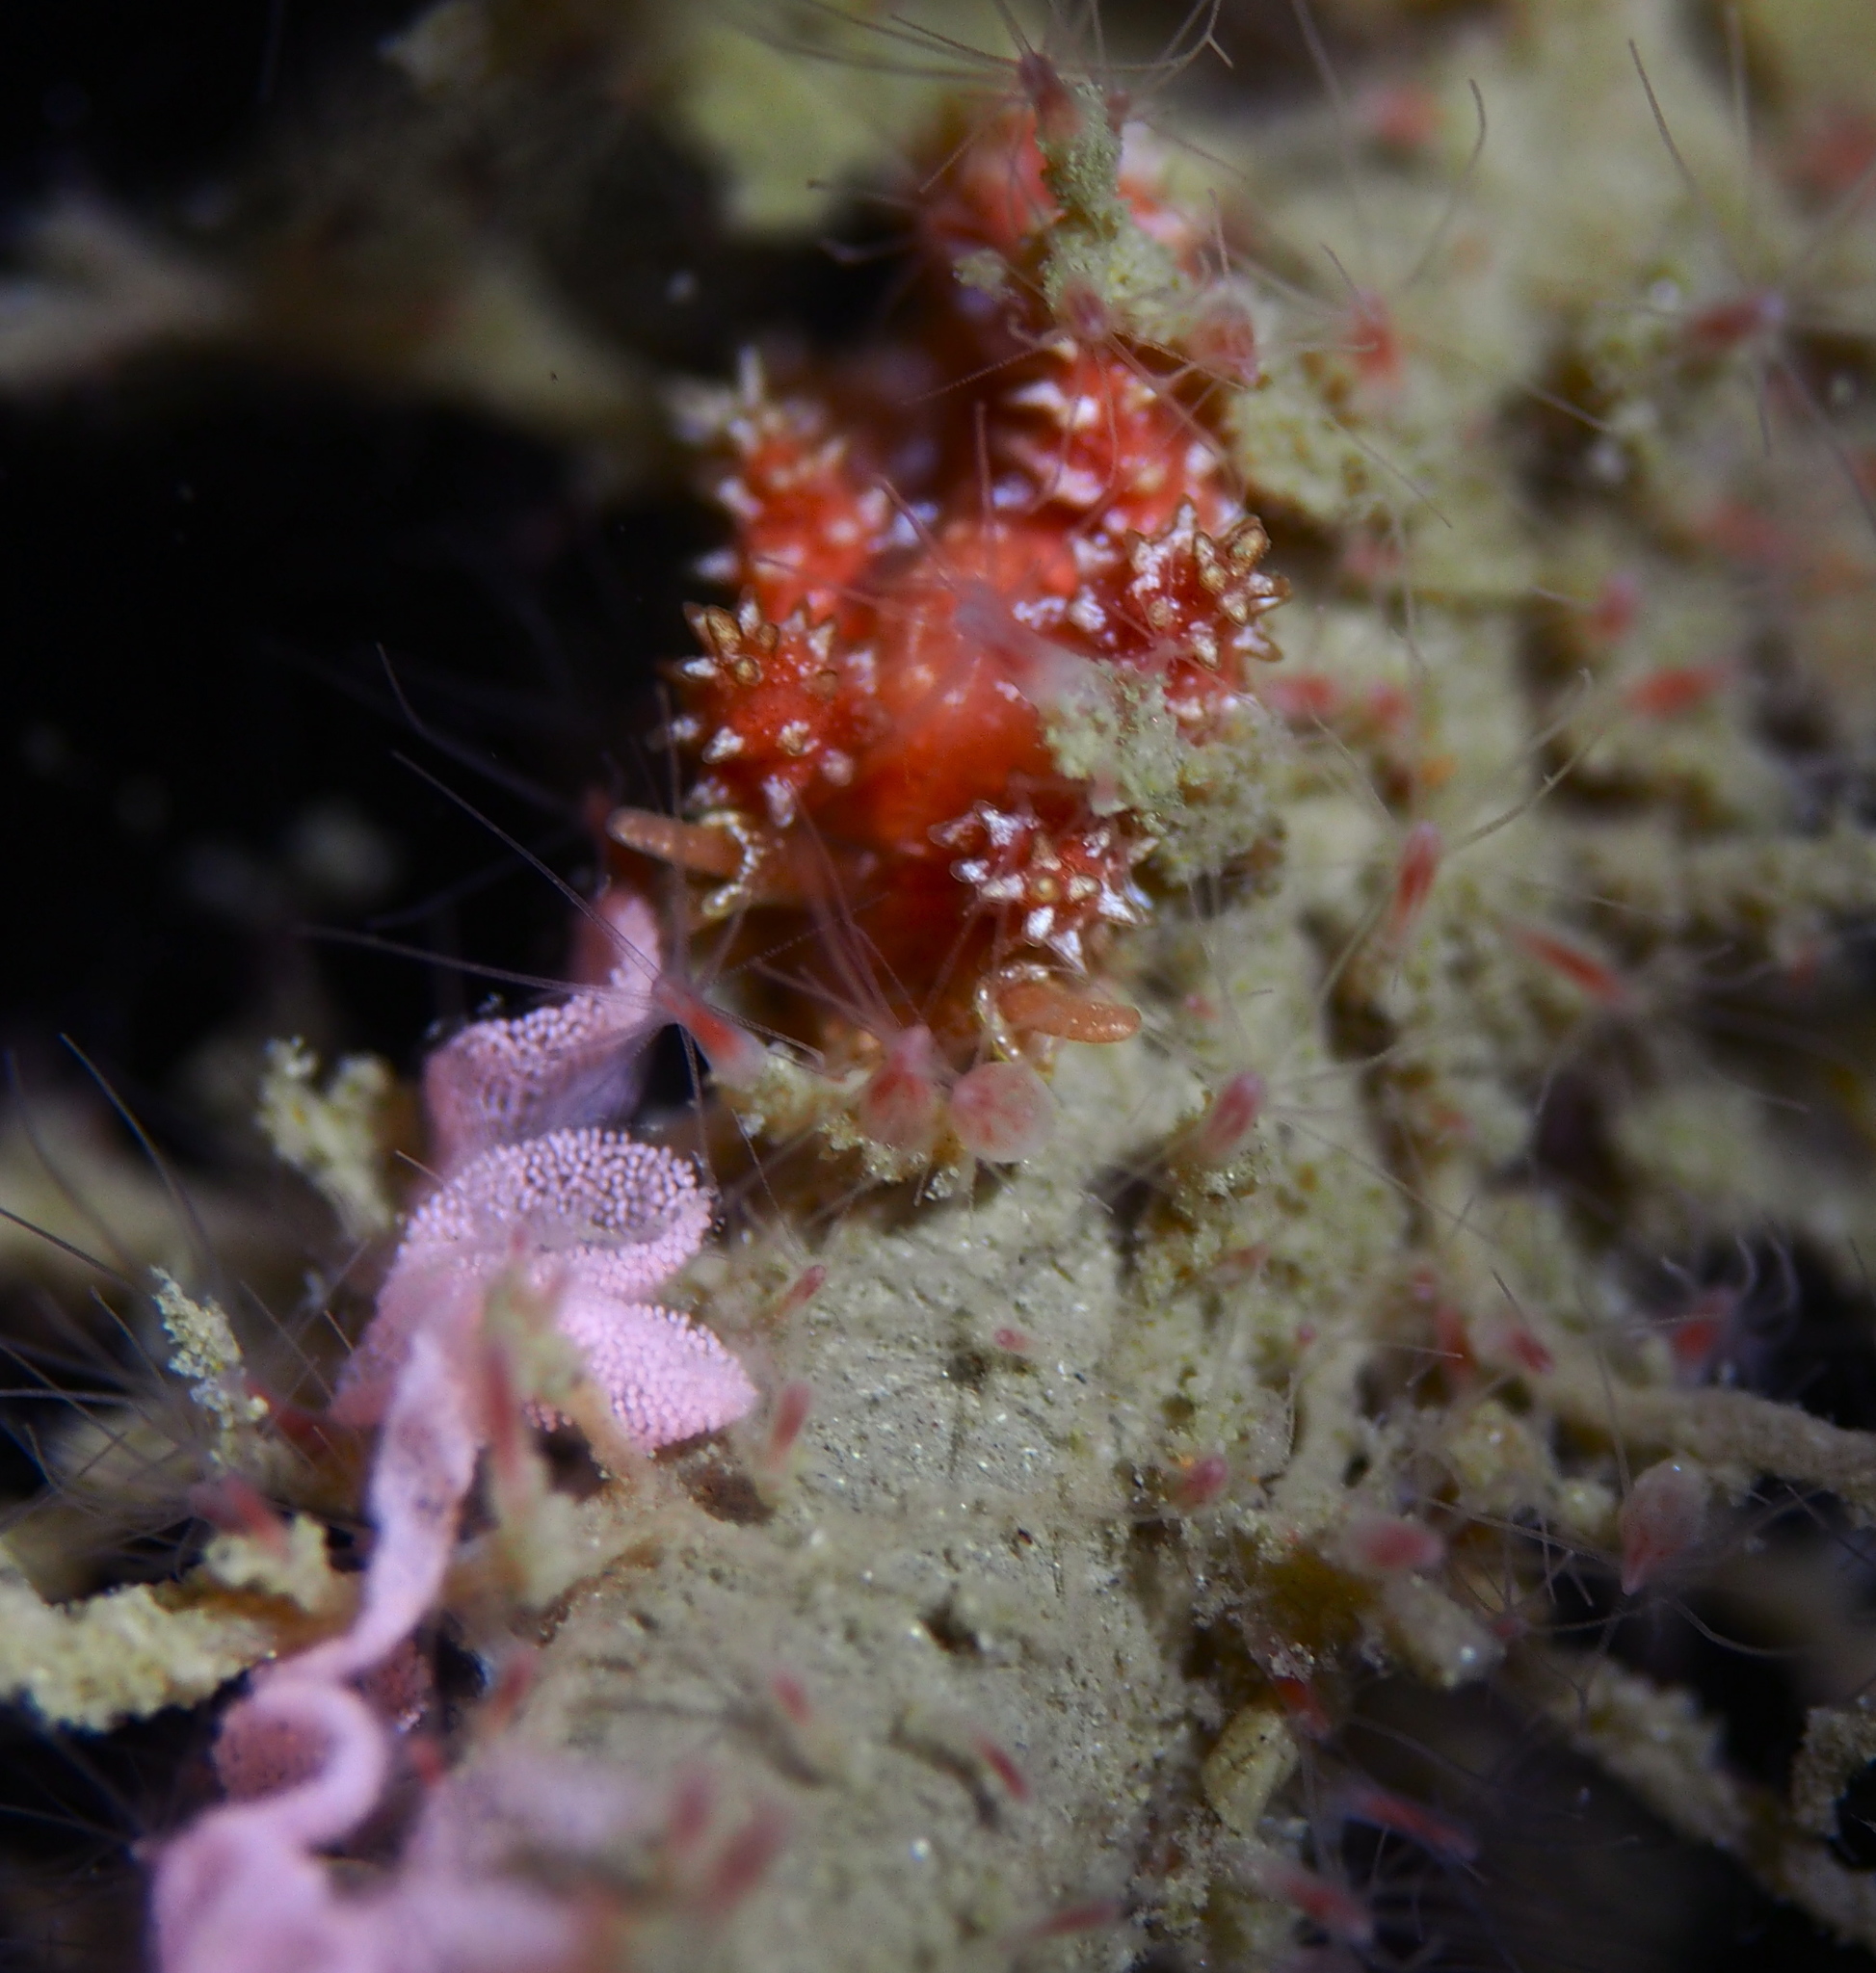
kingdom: Animalia
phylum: Mollusca
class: Gastropoda
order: Nudibranchia
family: Dotidae
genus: Doto
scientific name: Doto fragilis
